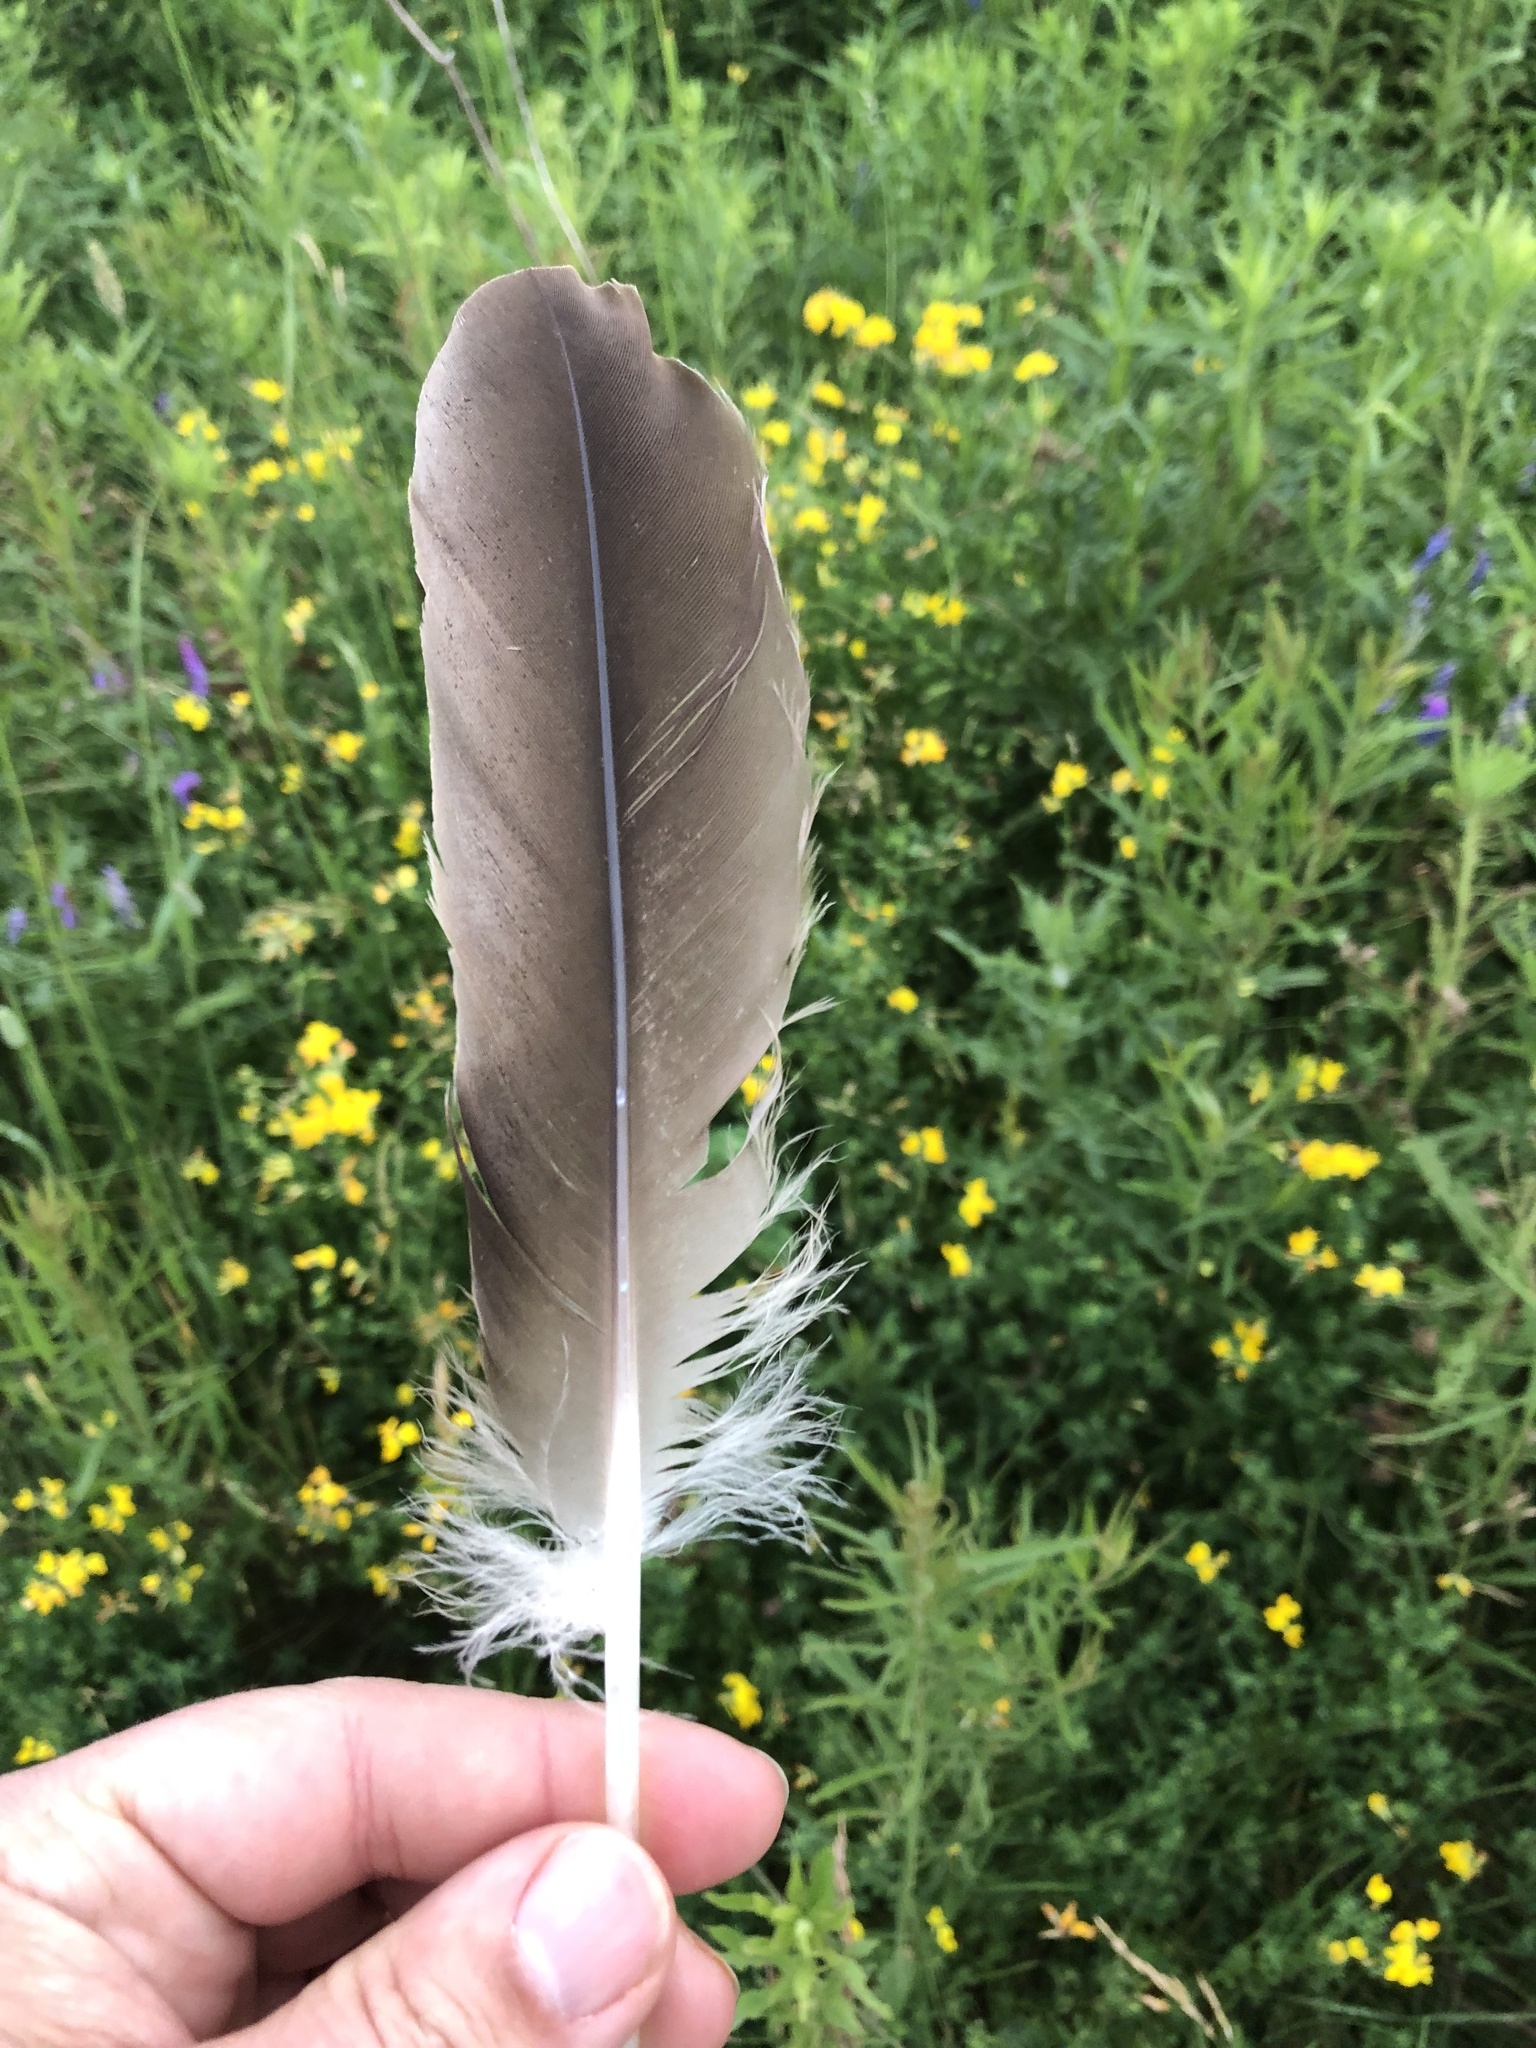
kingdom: Animalia
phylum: Chordata
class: Aves
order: Anseriformes
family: Anatidae
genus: Branta
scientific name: Branta canadensis
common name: Canada goose
